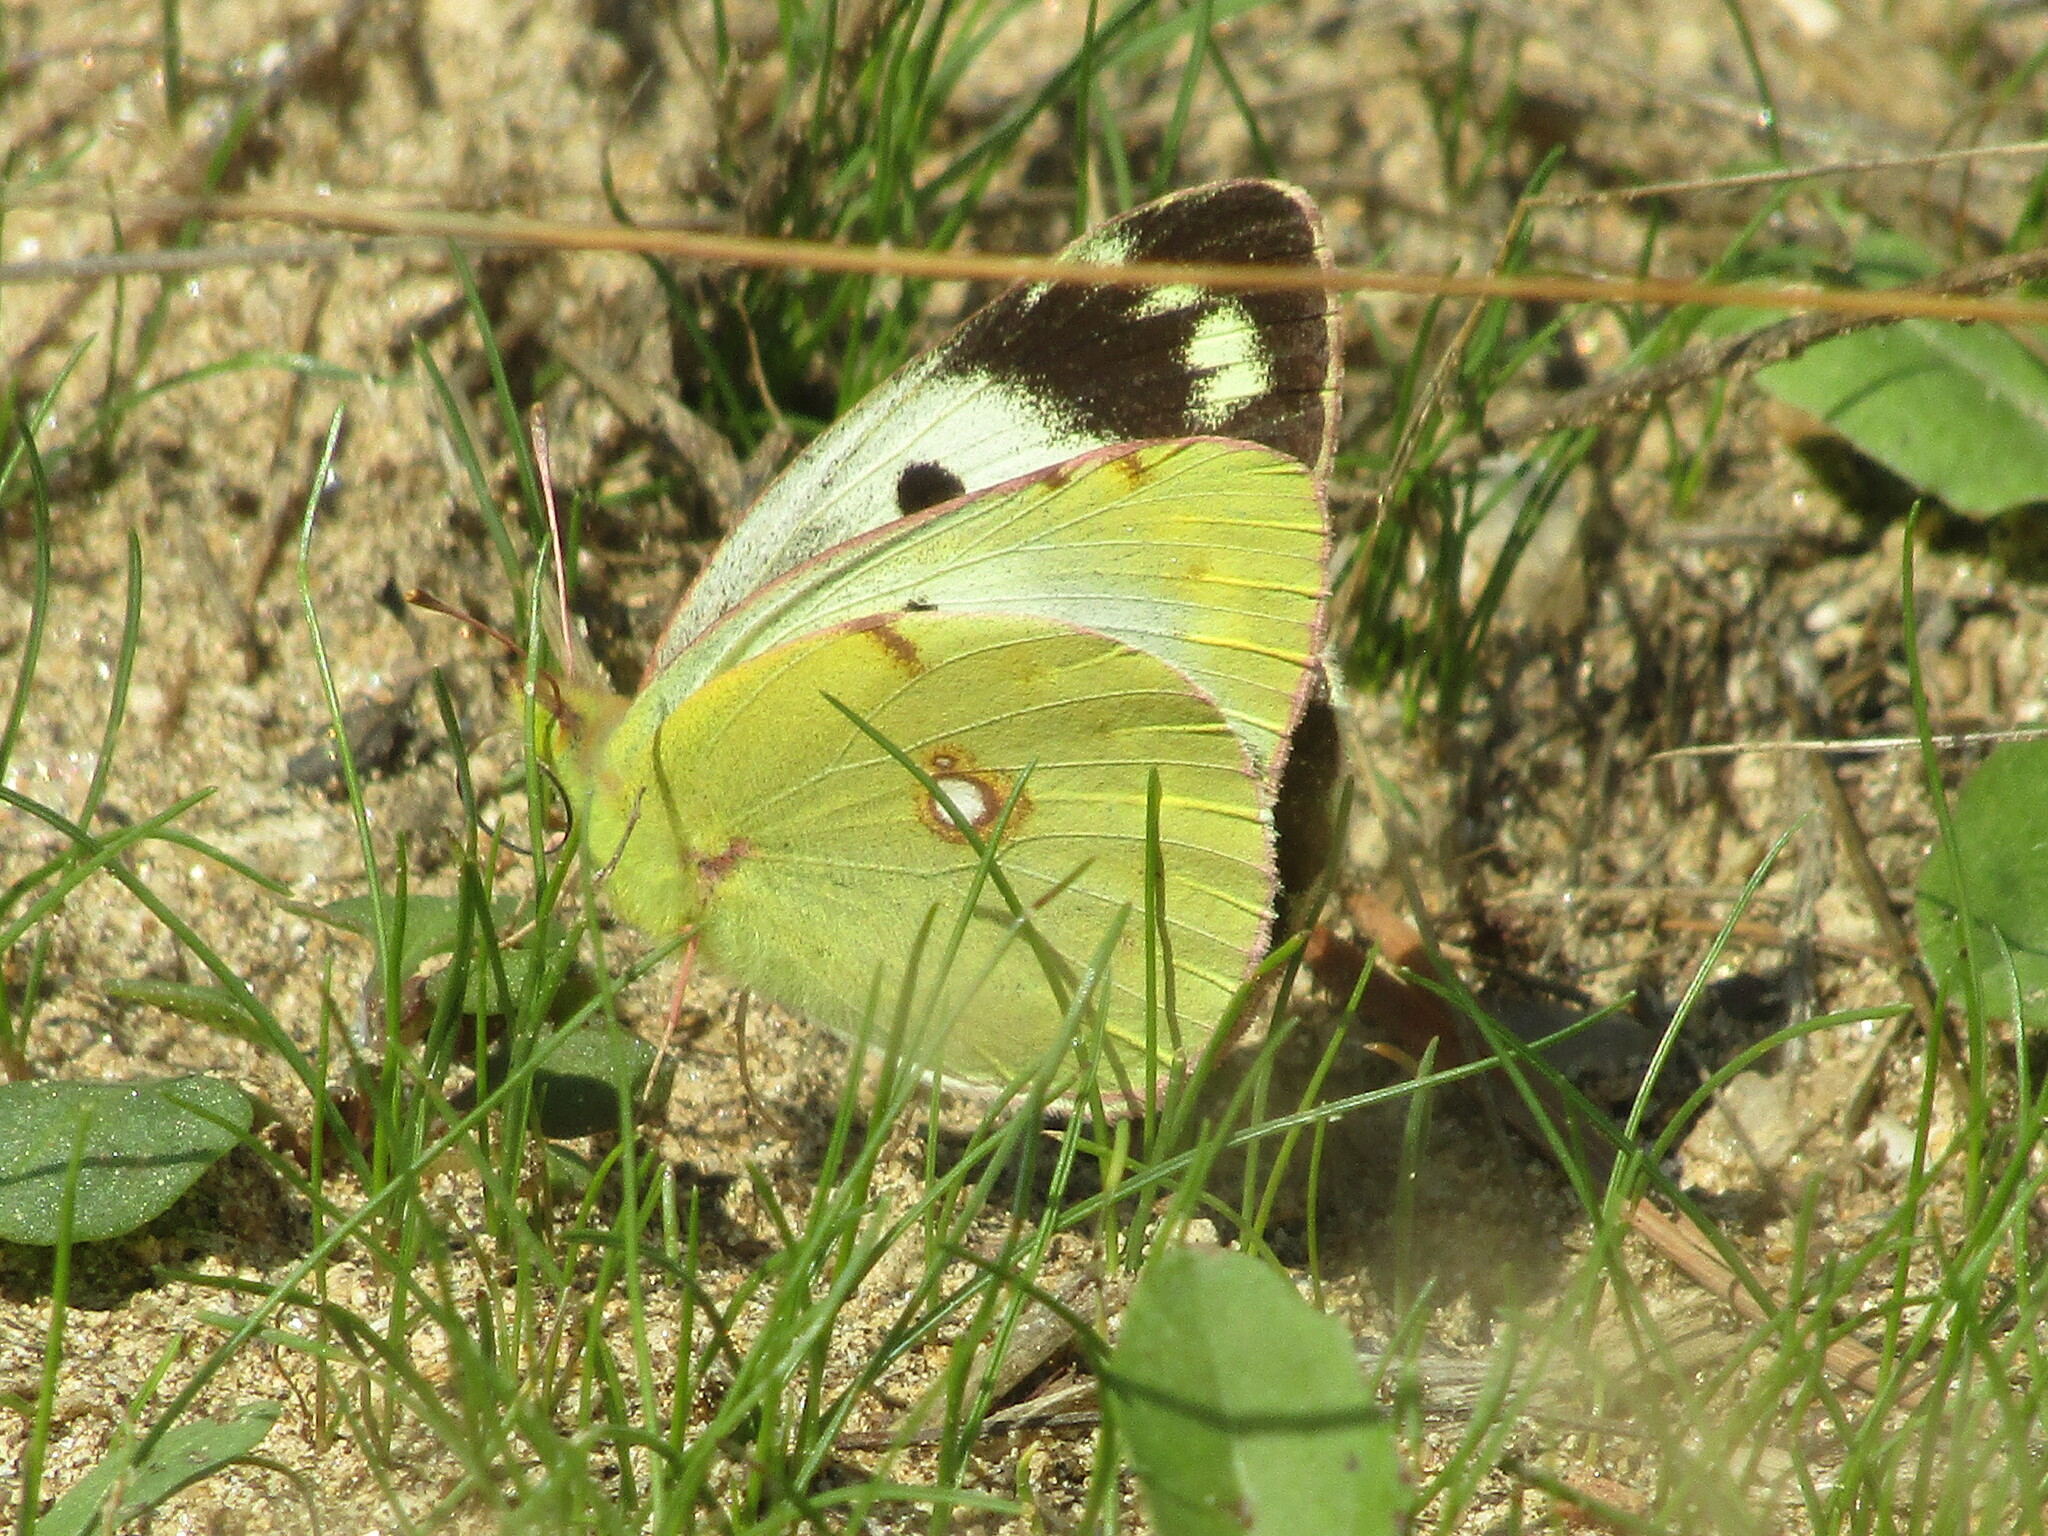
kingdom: Animalia
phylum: Arthropoda
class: Insecta
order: Lepidoptera
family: Pieridae
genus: Colias
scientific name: Colias
